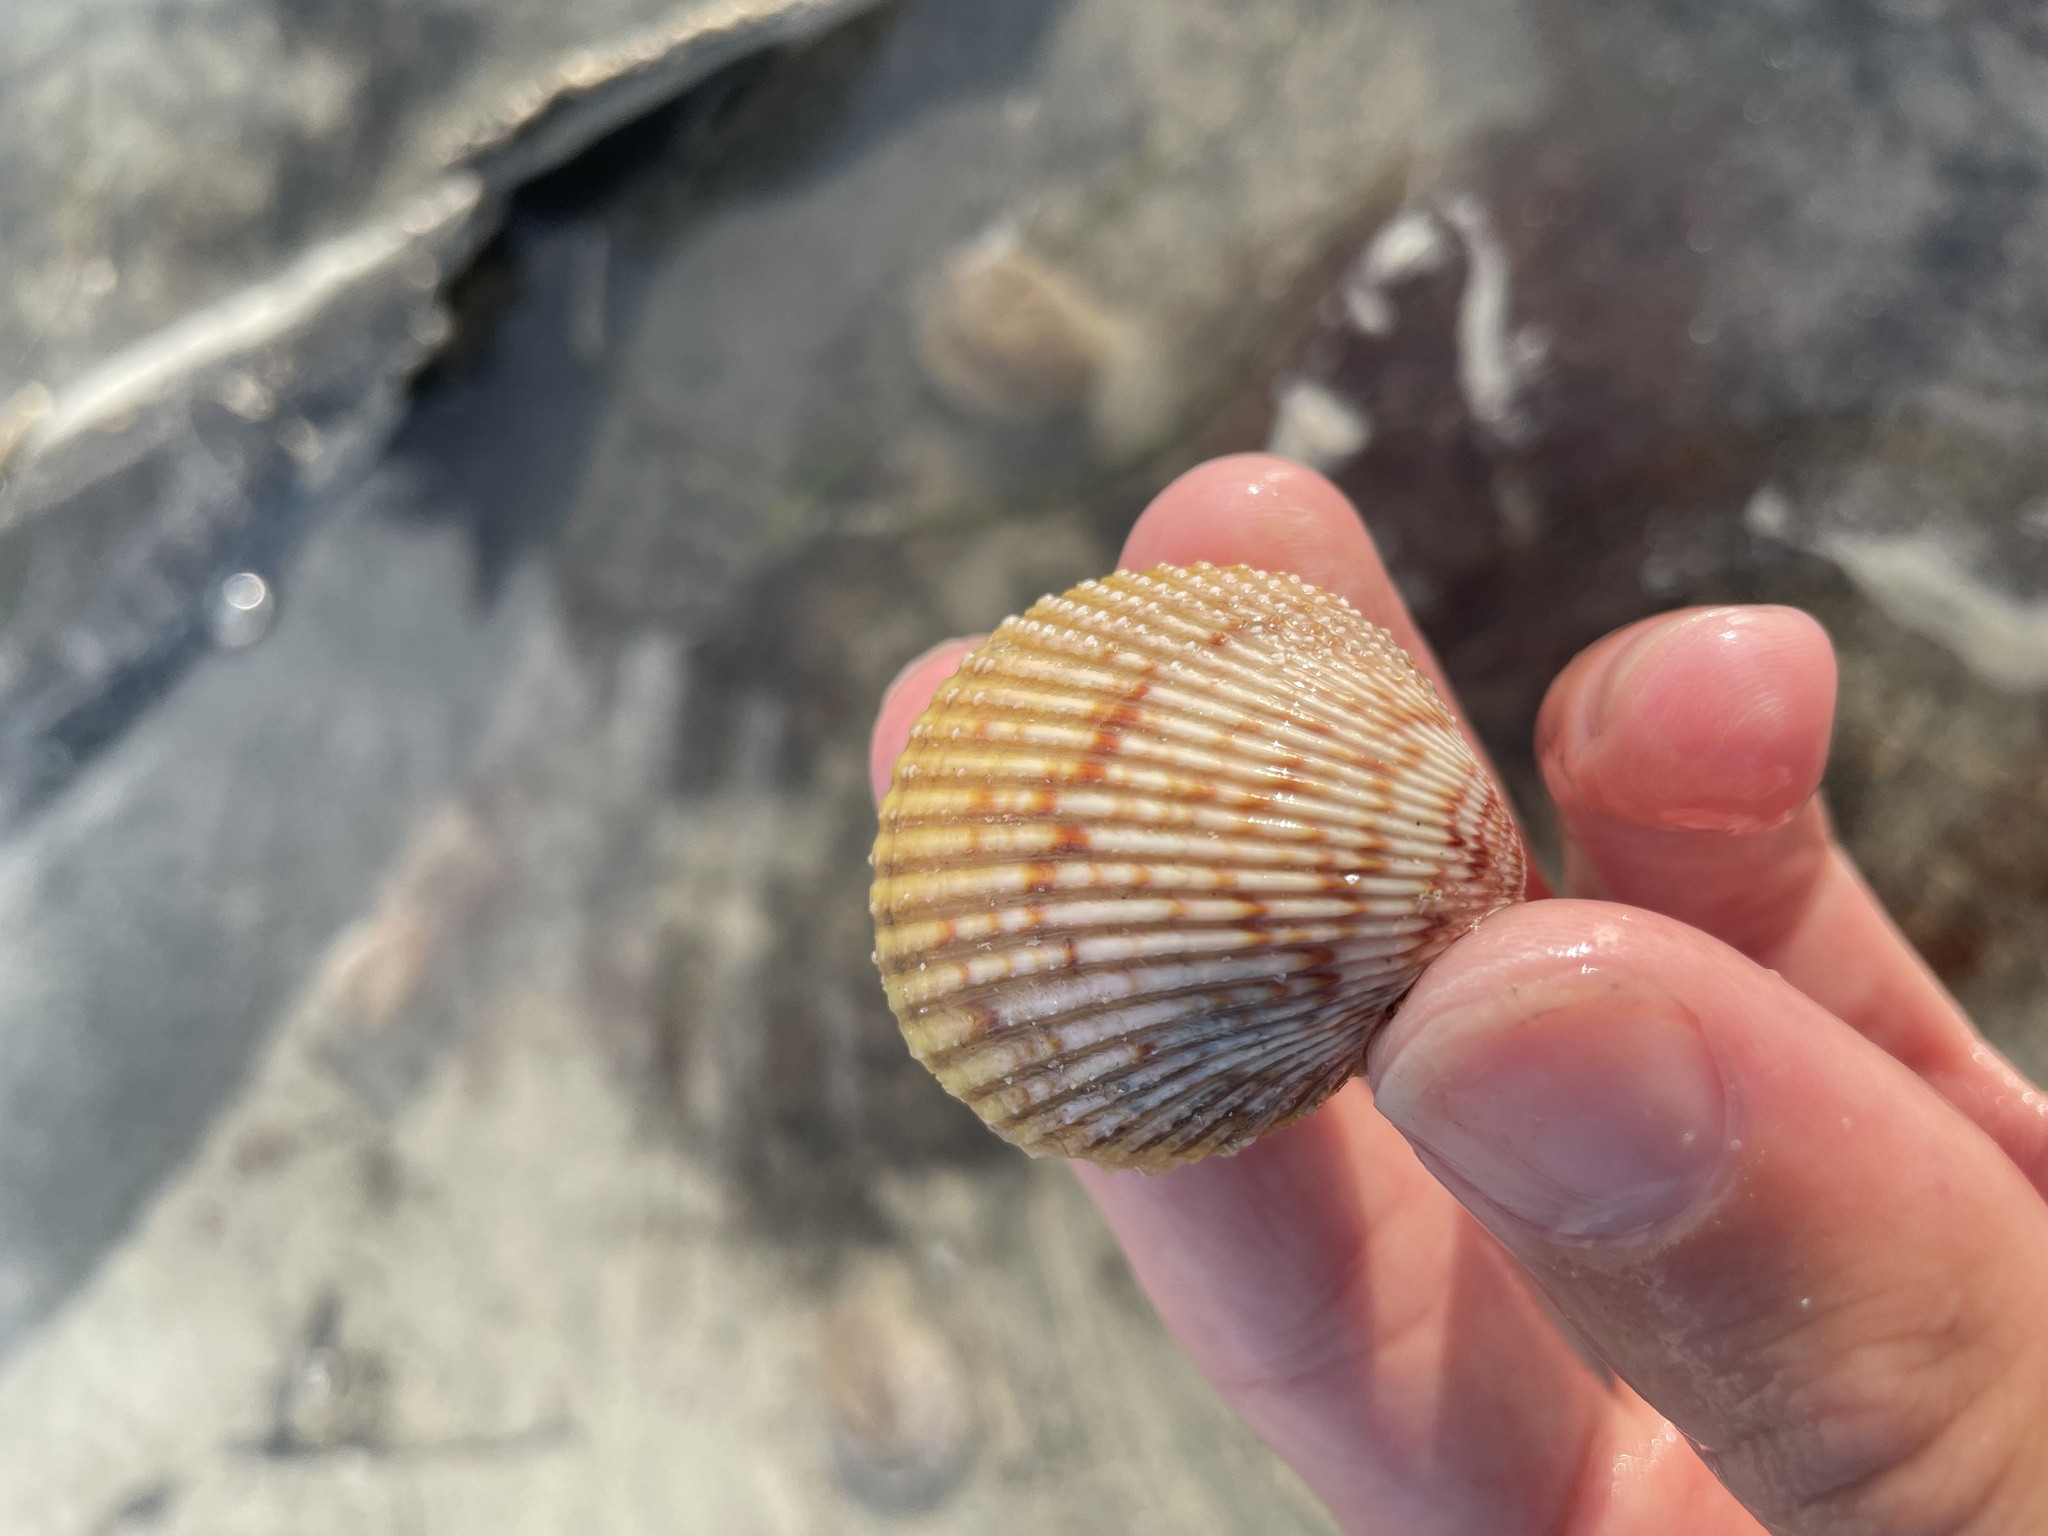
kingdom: Animalia
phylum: Mollusca
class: Bivalvia
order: Cardiida
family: Cardiidae
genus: Dallocardia
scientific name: Dallocardia muricata
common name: Yellow pricklycockle
